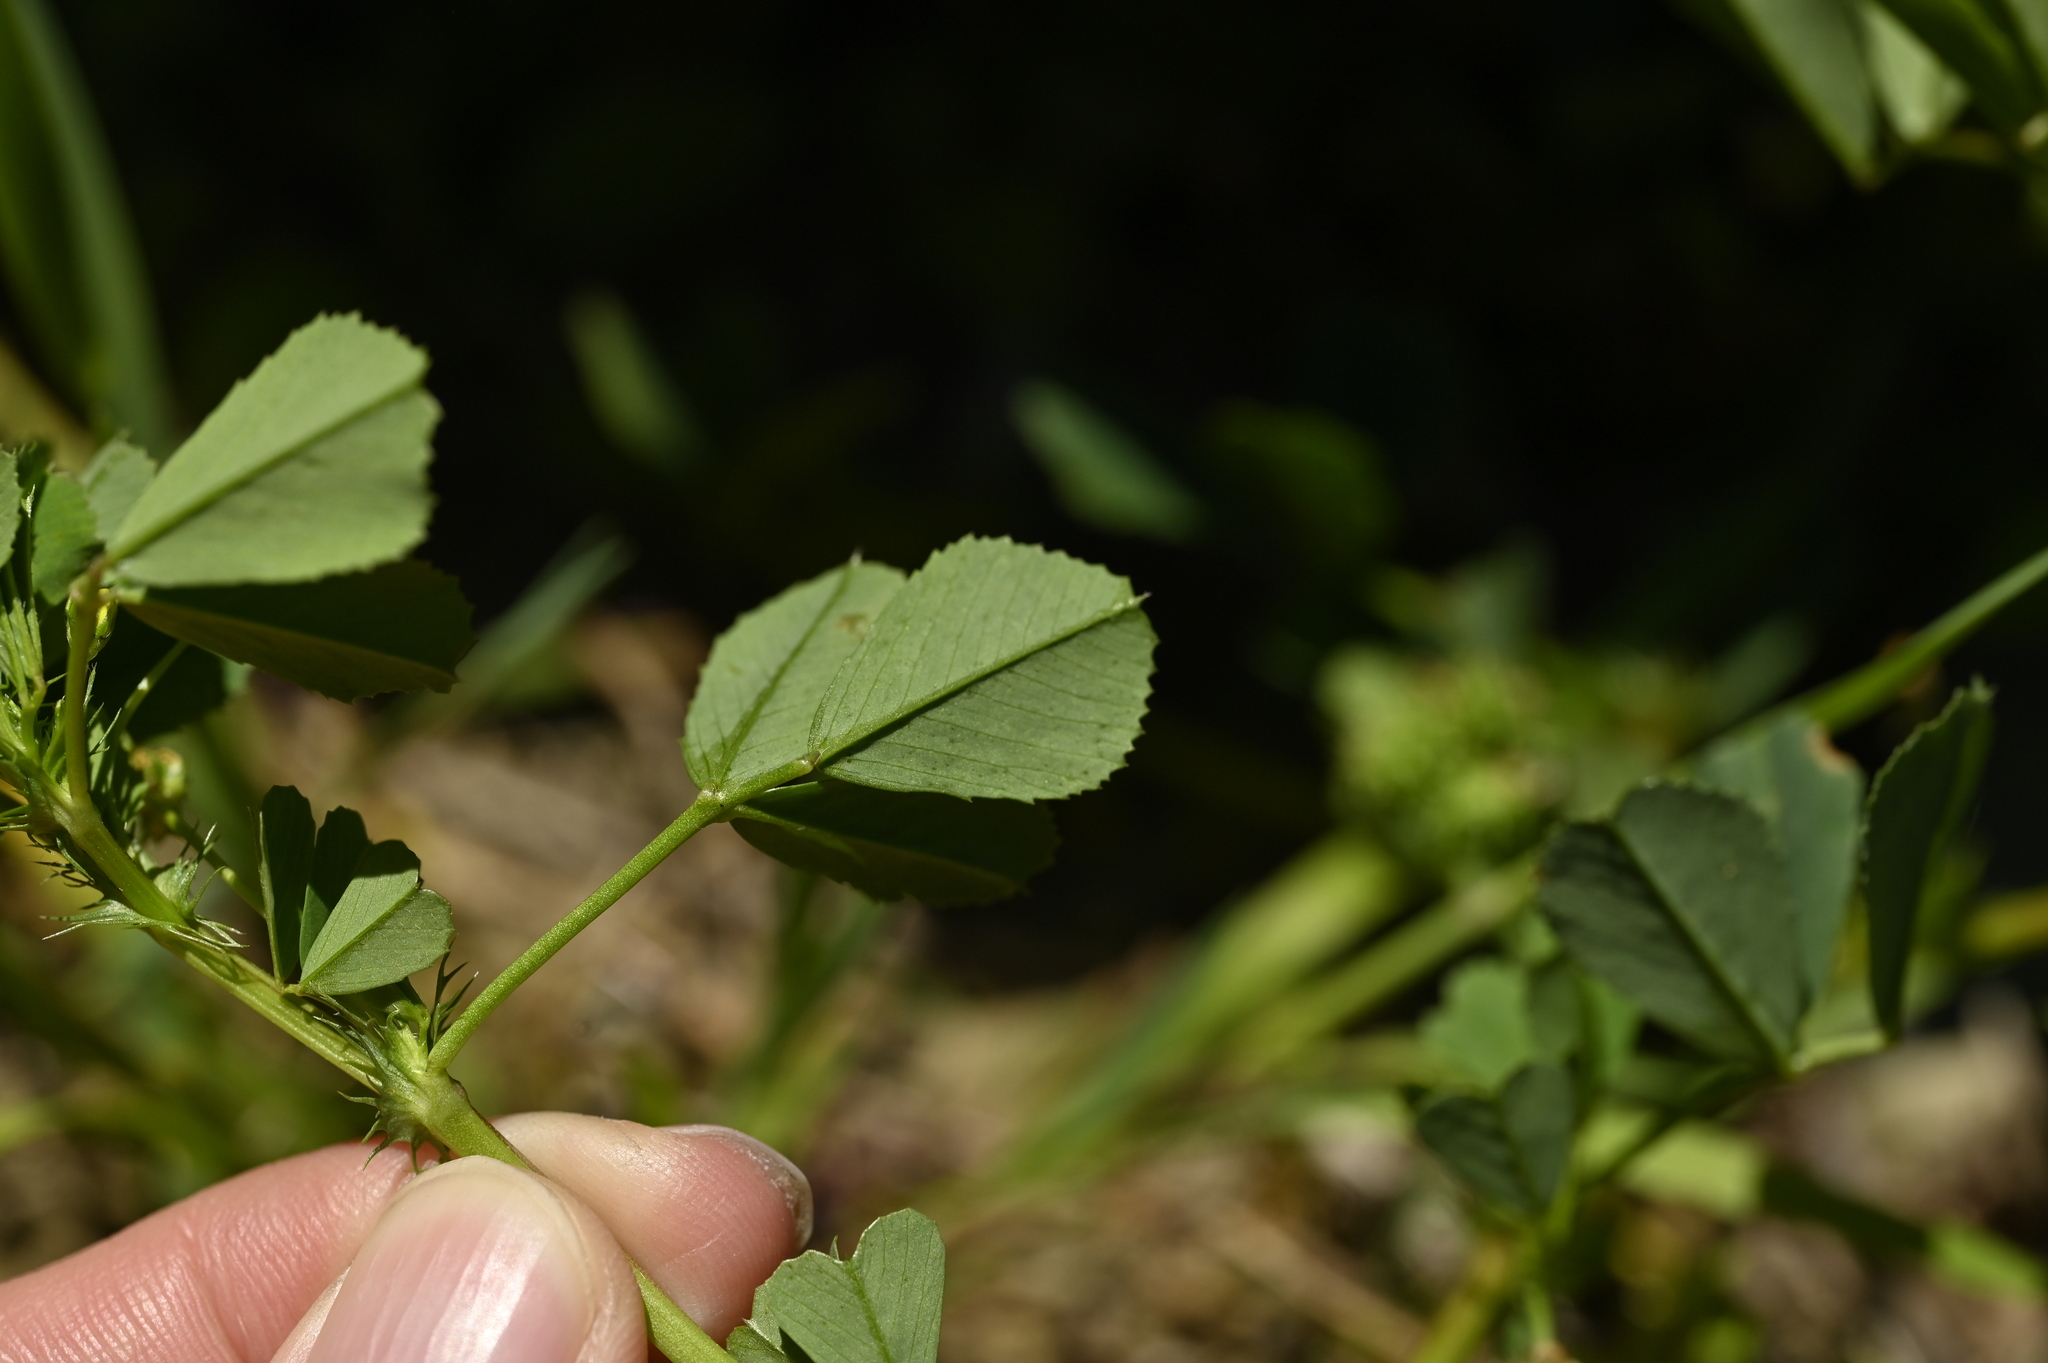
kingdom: Plantae
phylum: Tracheophyta
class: Magnoliopsida
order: Fabales
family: Fabaceae
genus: Medicago
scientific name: Medicago polymorpha
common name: Burclover
